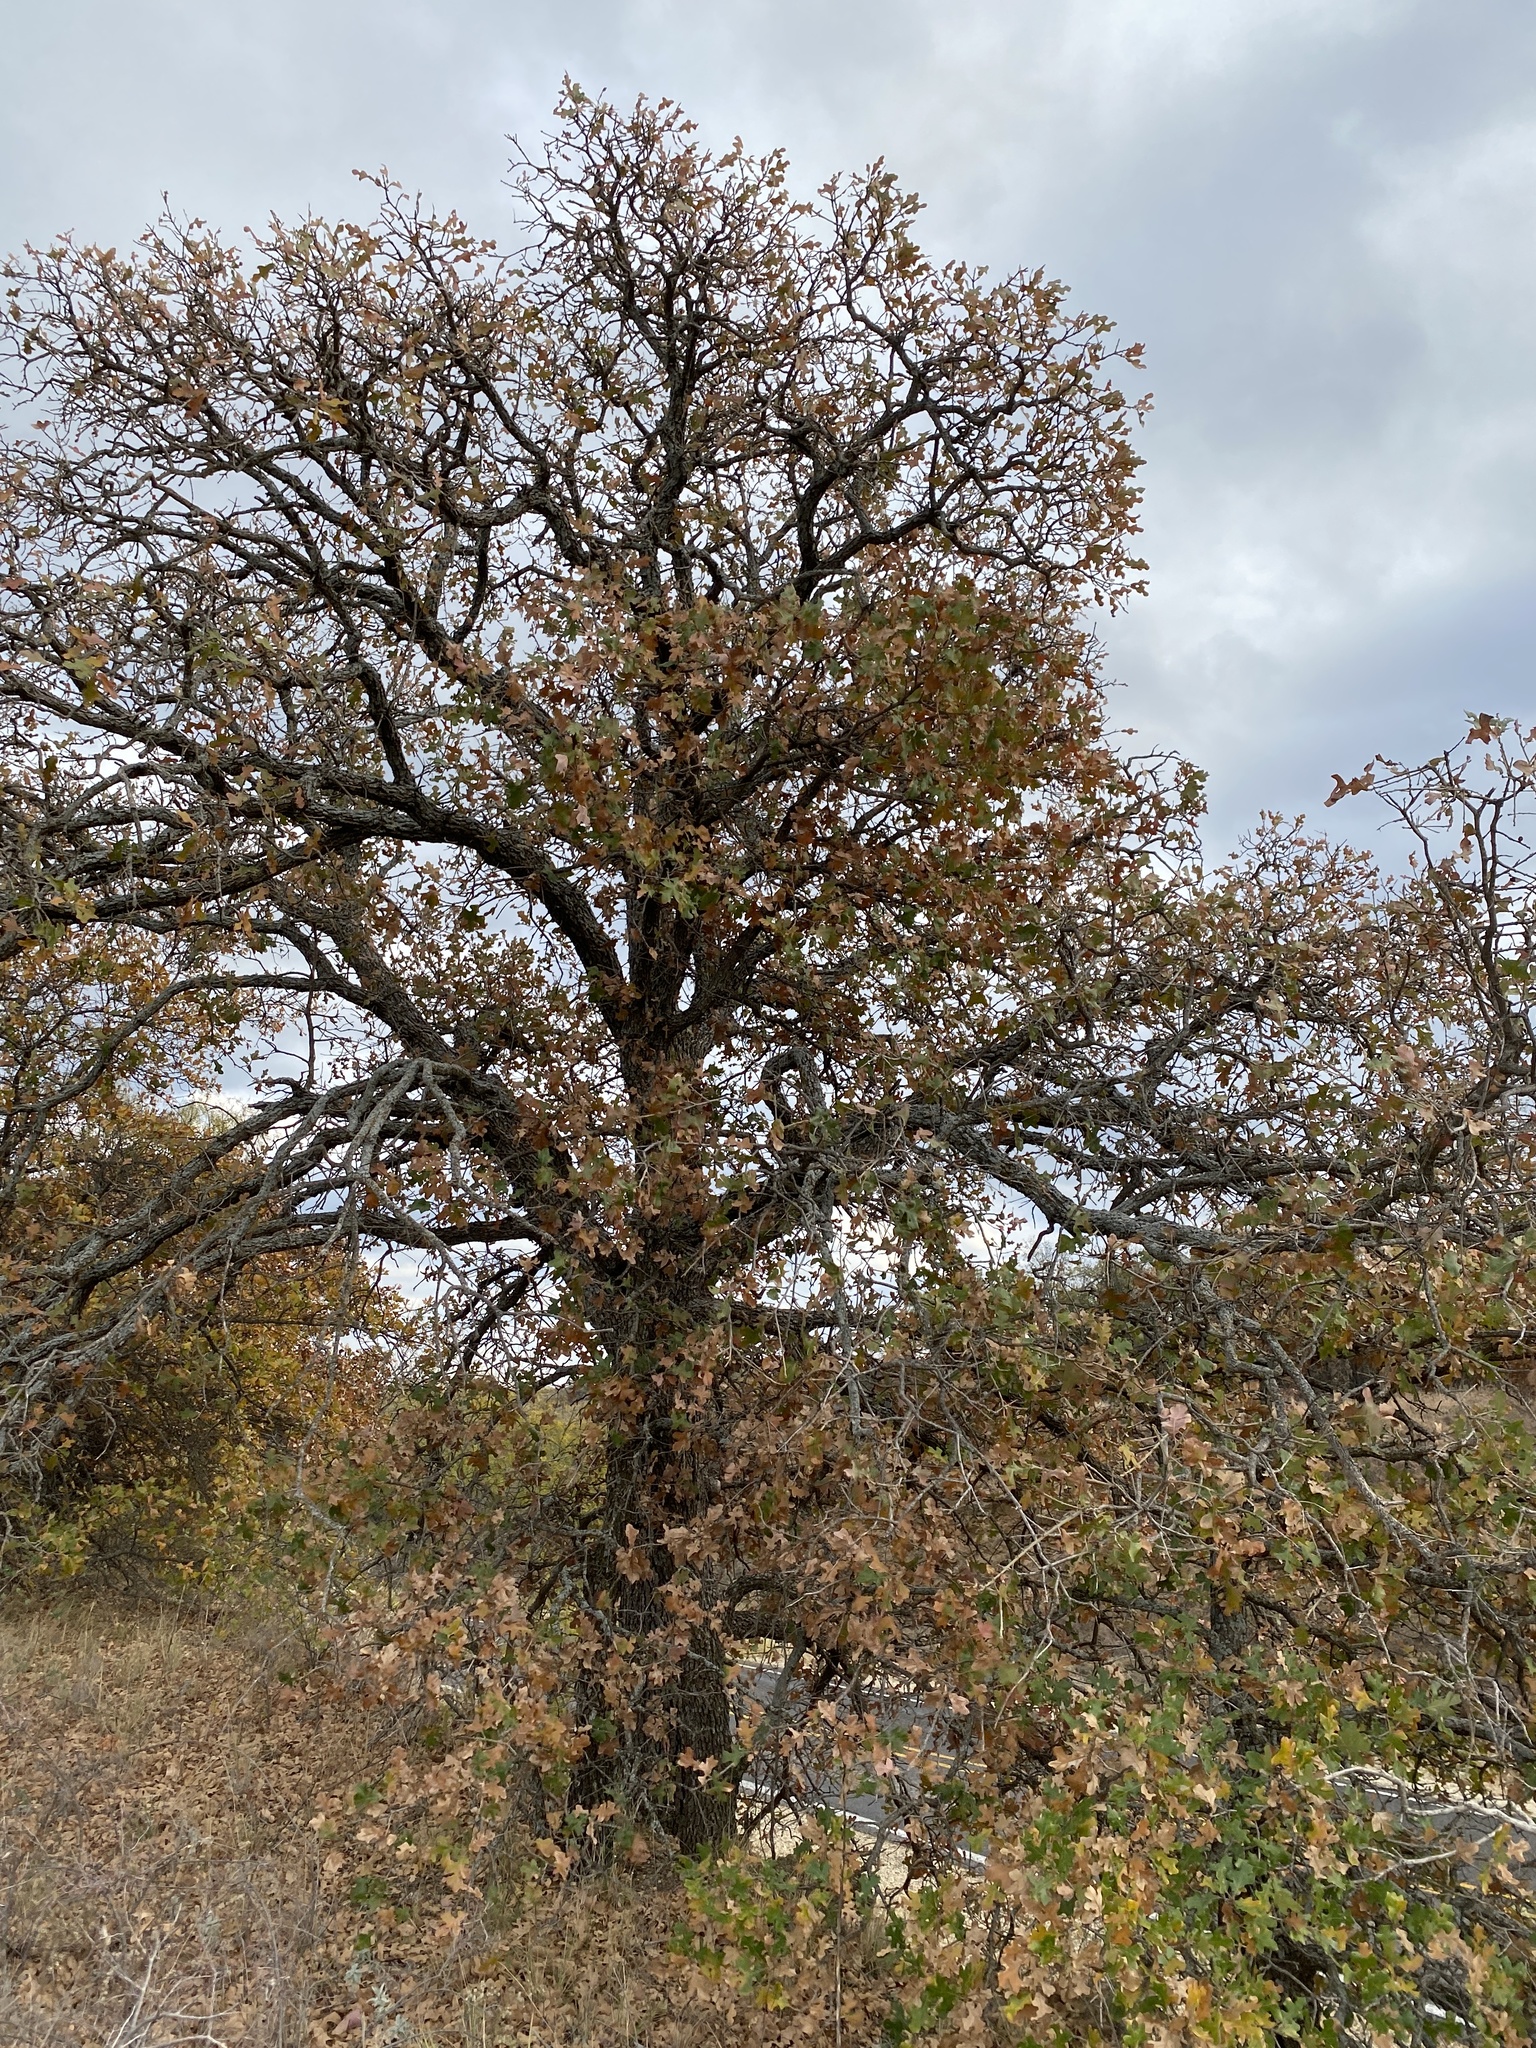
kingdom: Plantae
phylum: Tracheophyta
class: Magnoliopsida
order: Fagales
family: Fagaceae
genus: Quercus
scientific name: Quercus stellata
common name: Post oak
